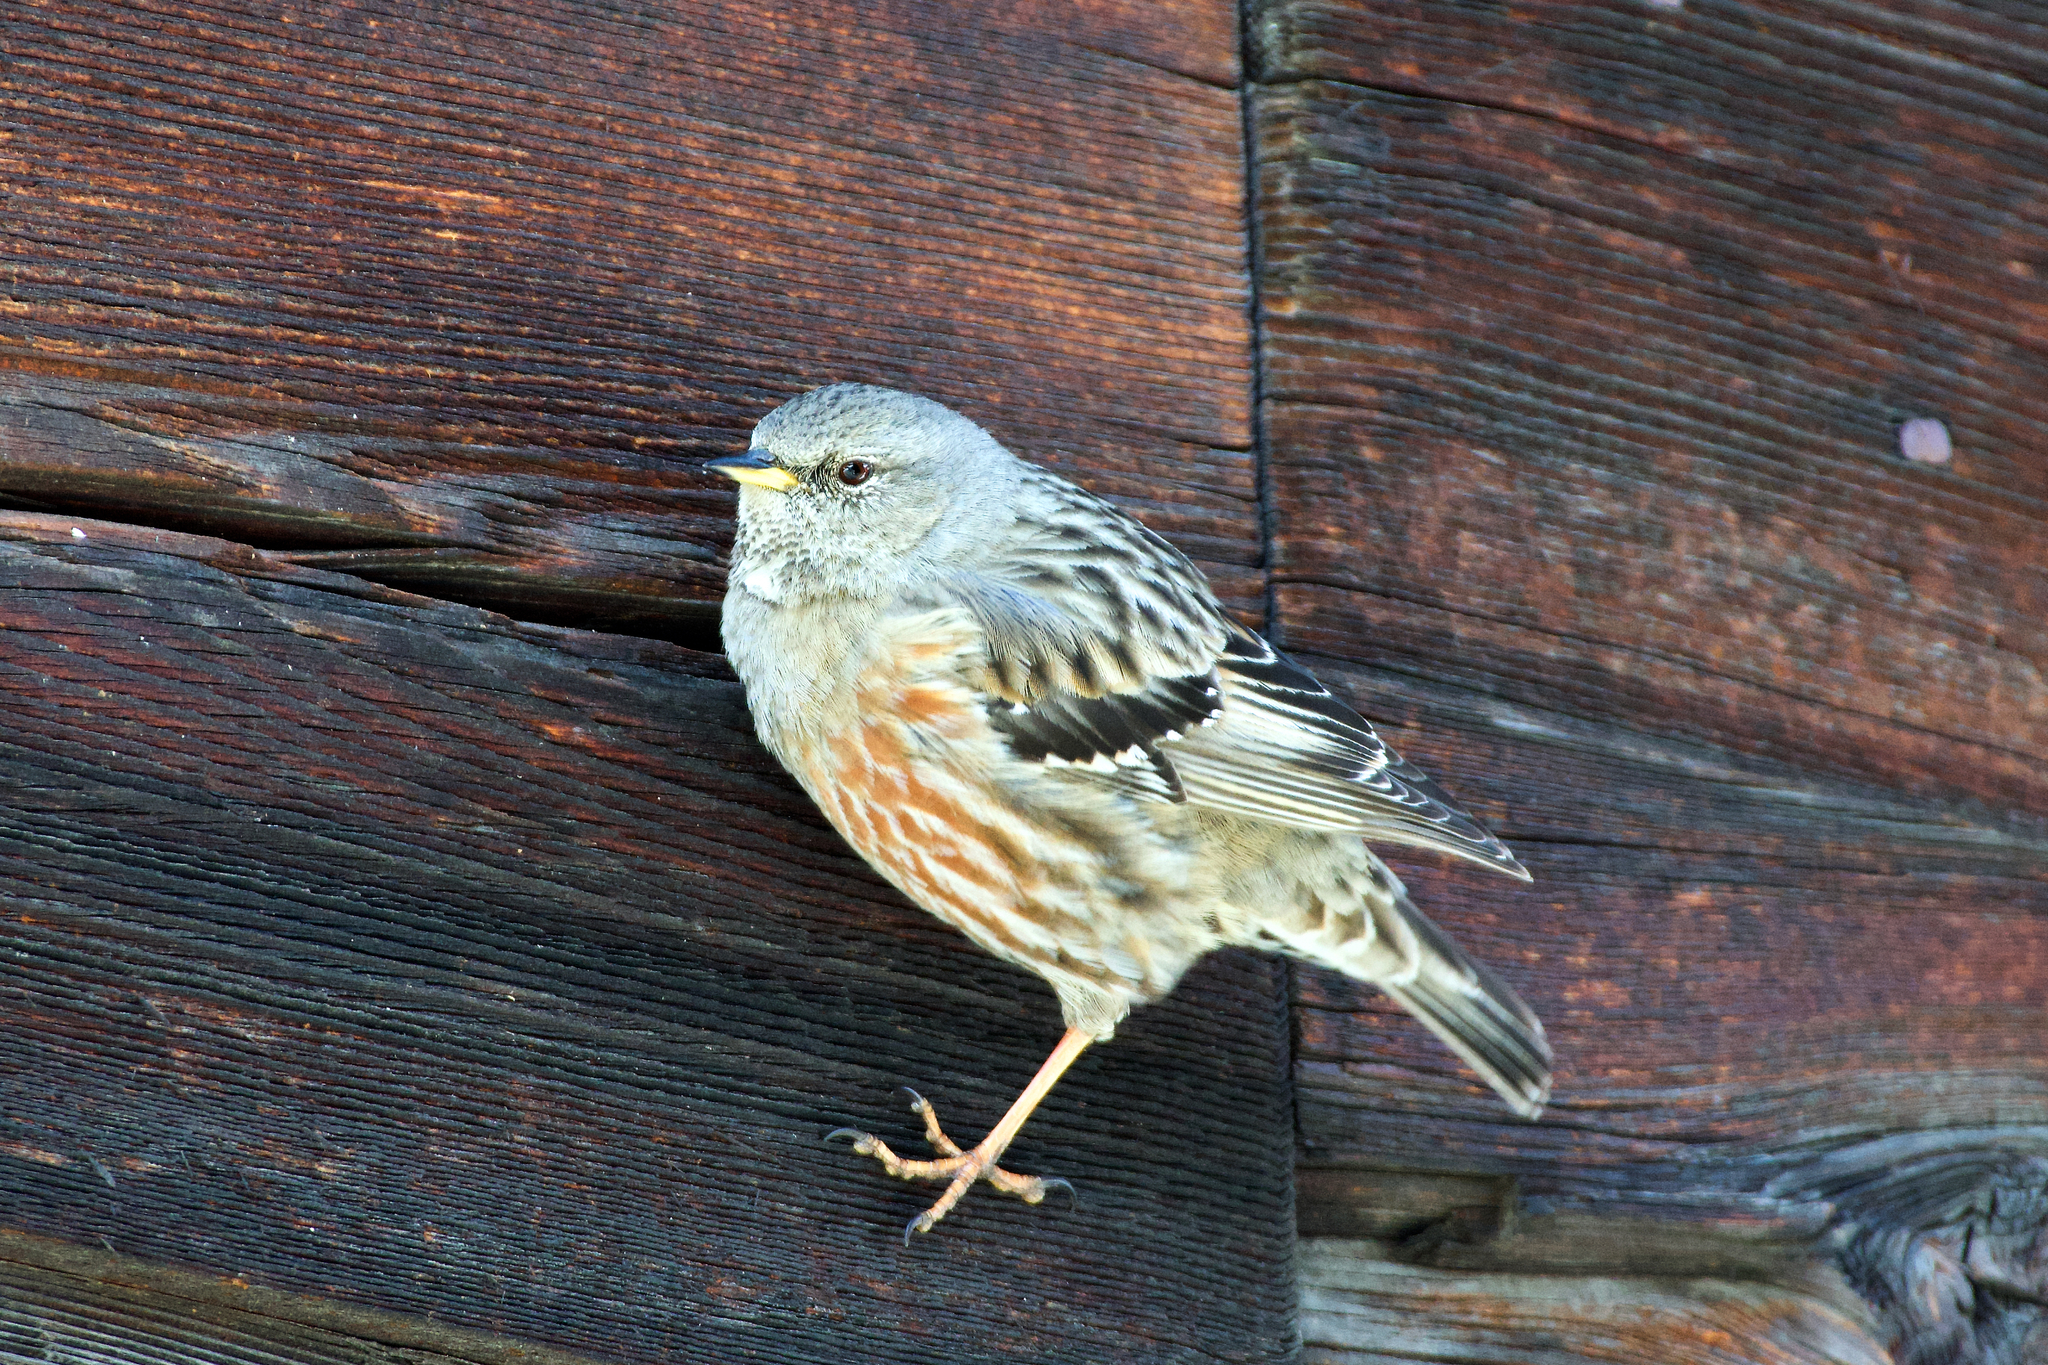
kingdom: Animalia
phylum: Chordata
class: Aves
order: Passeriformes
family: Prunellidae
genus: Prunella
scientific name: Prunella collaris
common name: Alpine accentor
